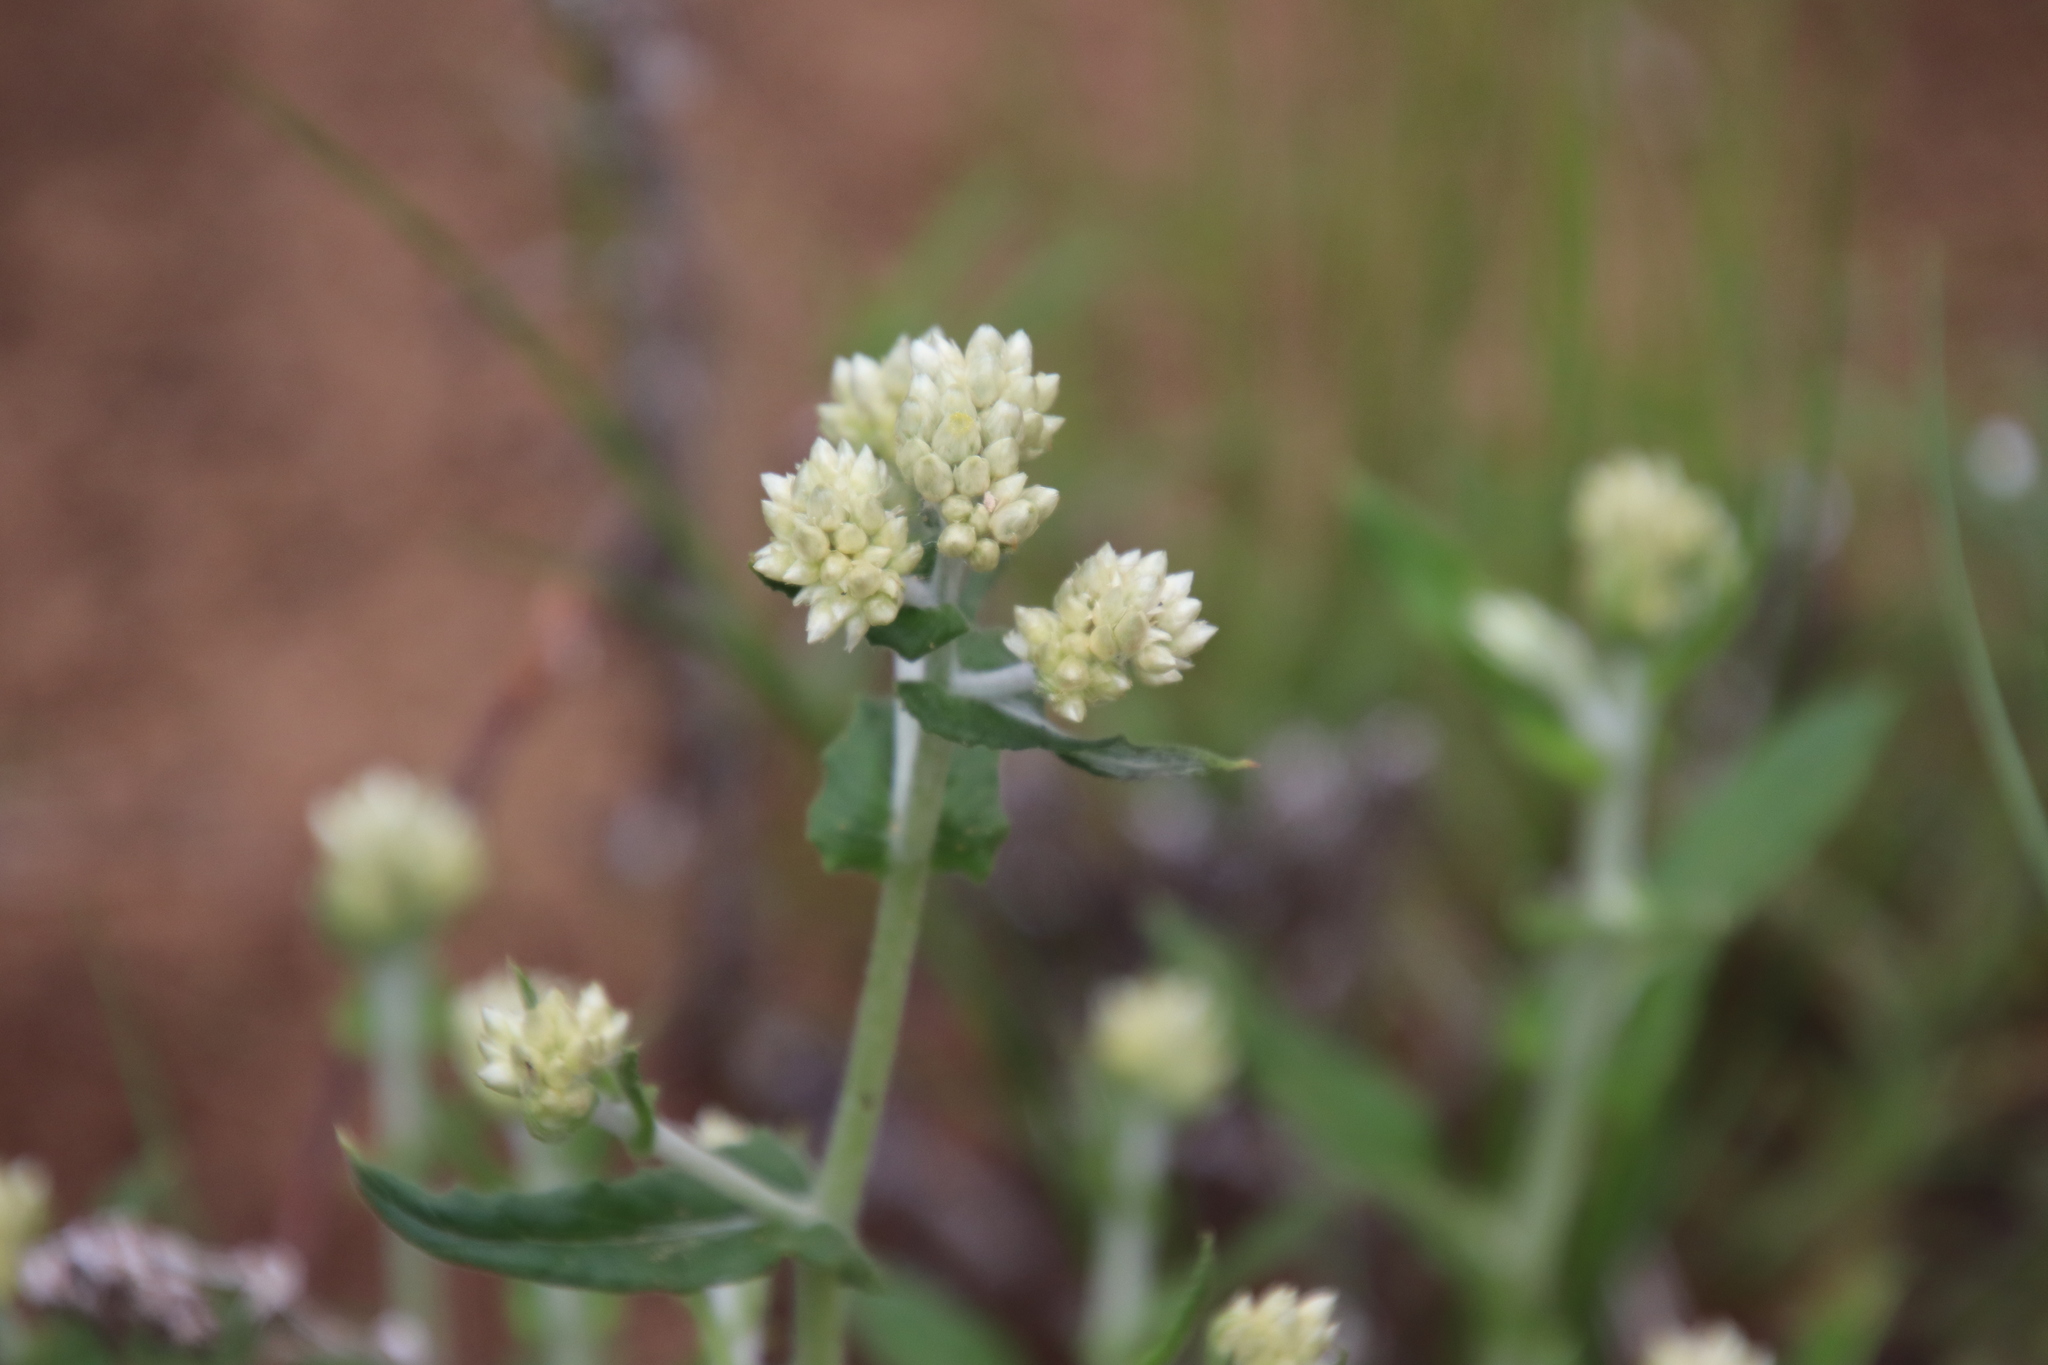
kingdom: Plantae
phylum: Tracheophyta
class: Magnoliopsida
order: Asterales
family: Asteraceae
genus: Pseudognaphalium
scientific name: Pseudognaphalium biolettii
